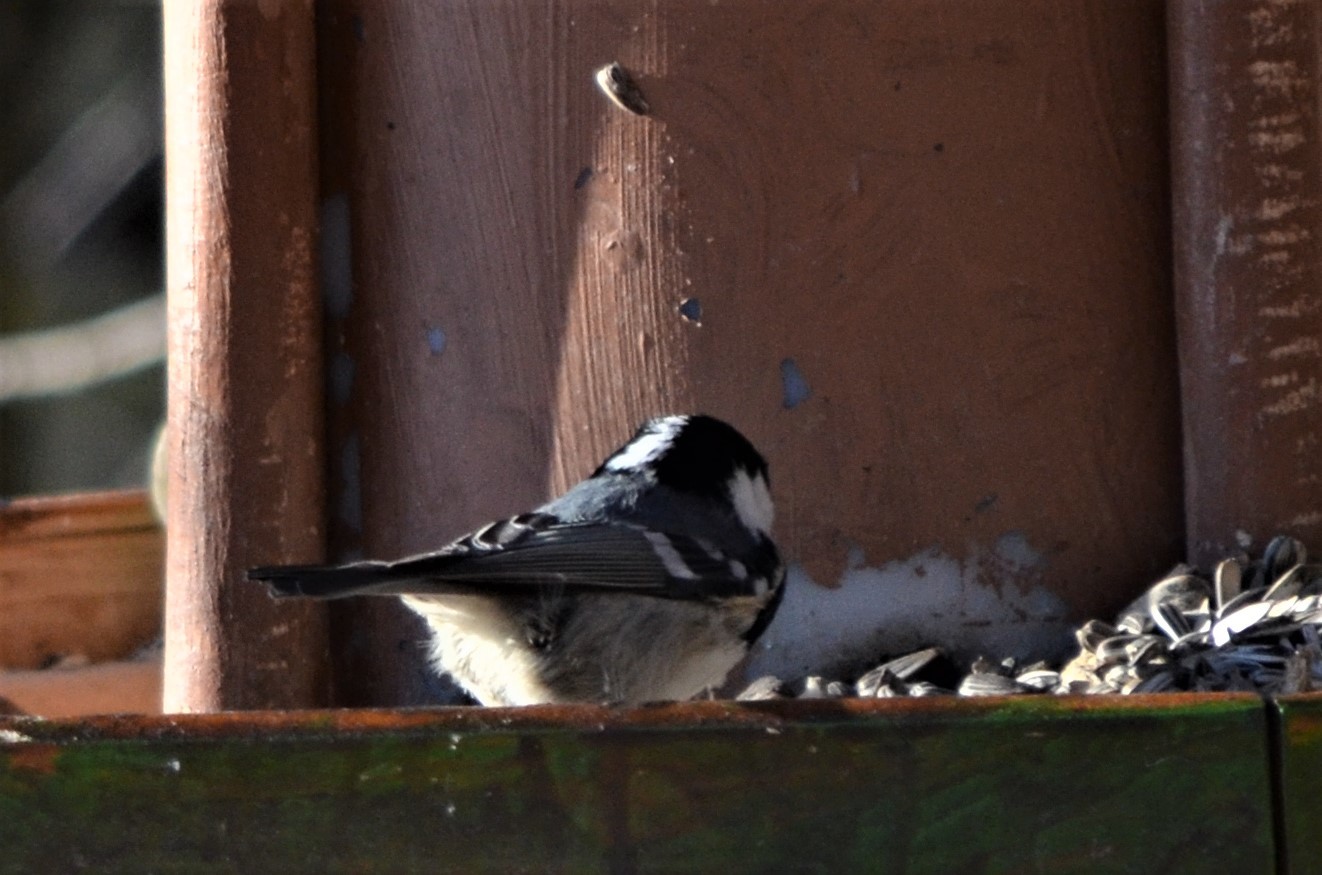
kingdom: Animalia
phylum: Chordata
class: Aves
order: Passeriformes
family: Paridae
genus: Periparus
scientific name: Periparus ater
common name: Coal tit
